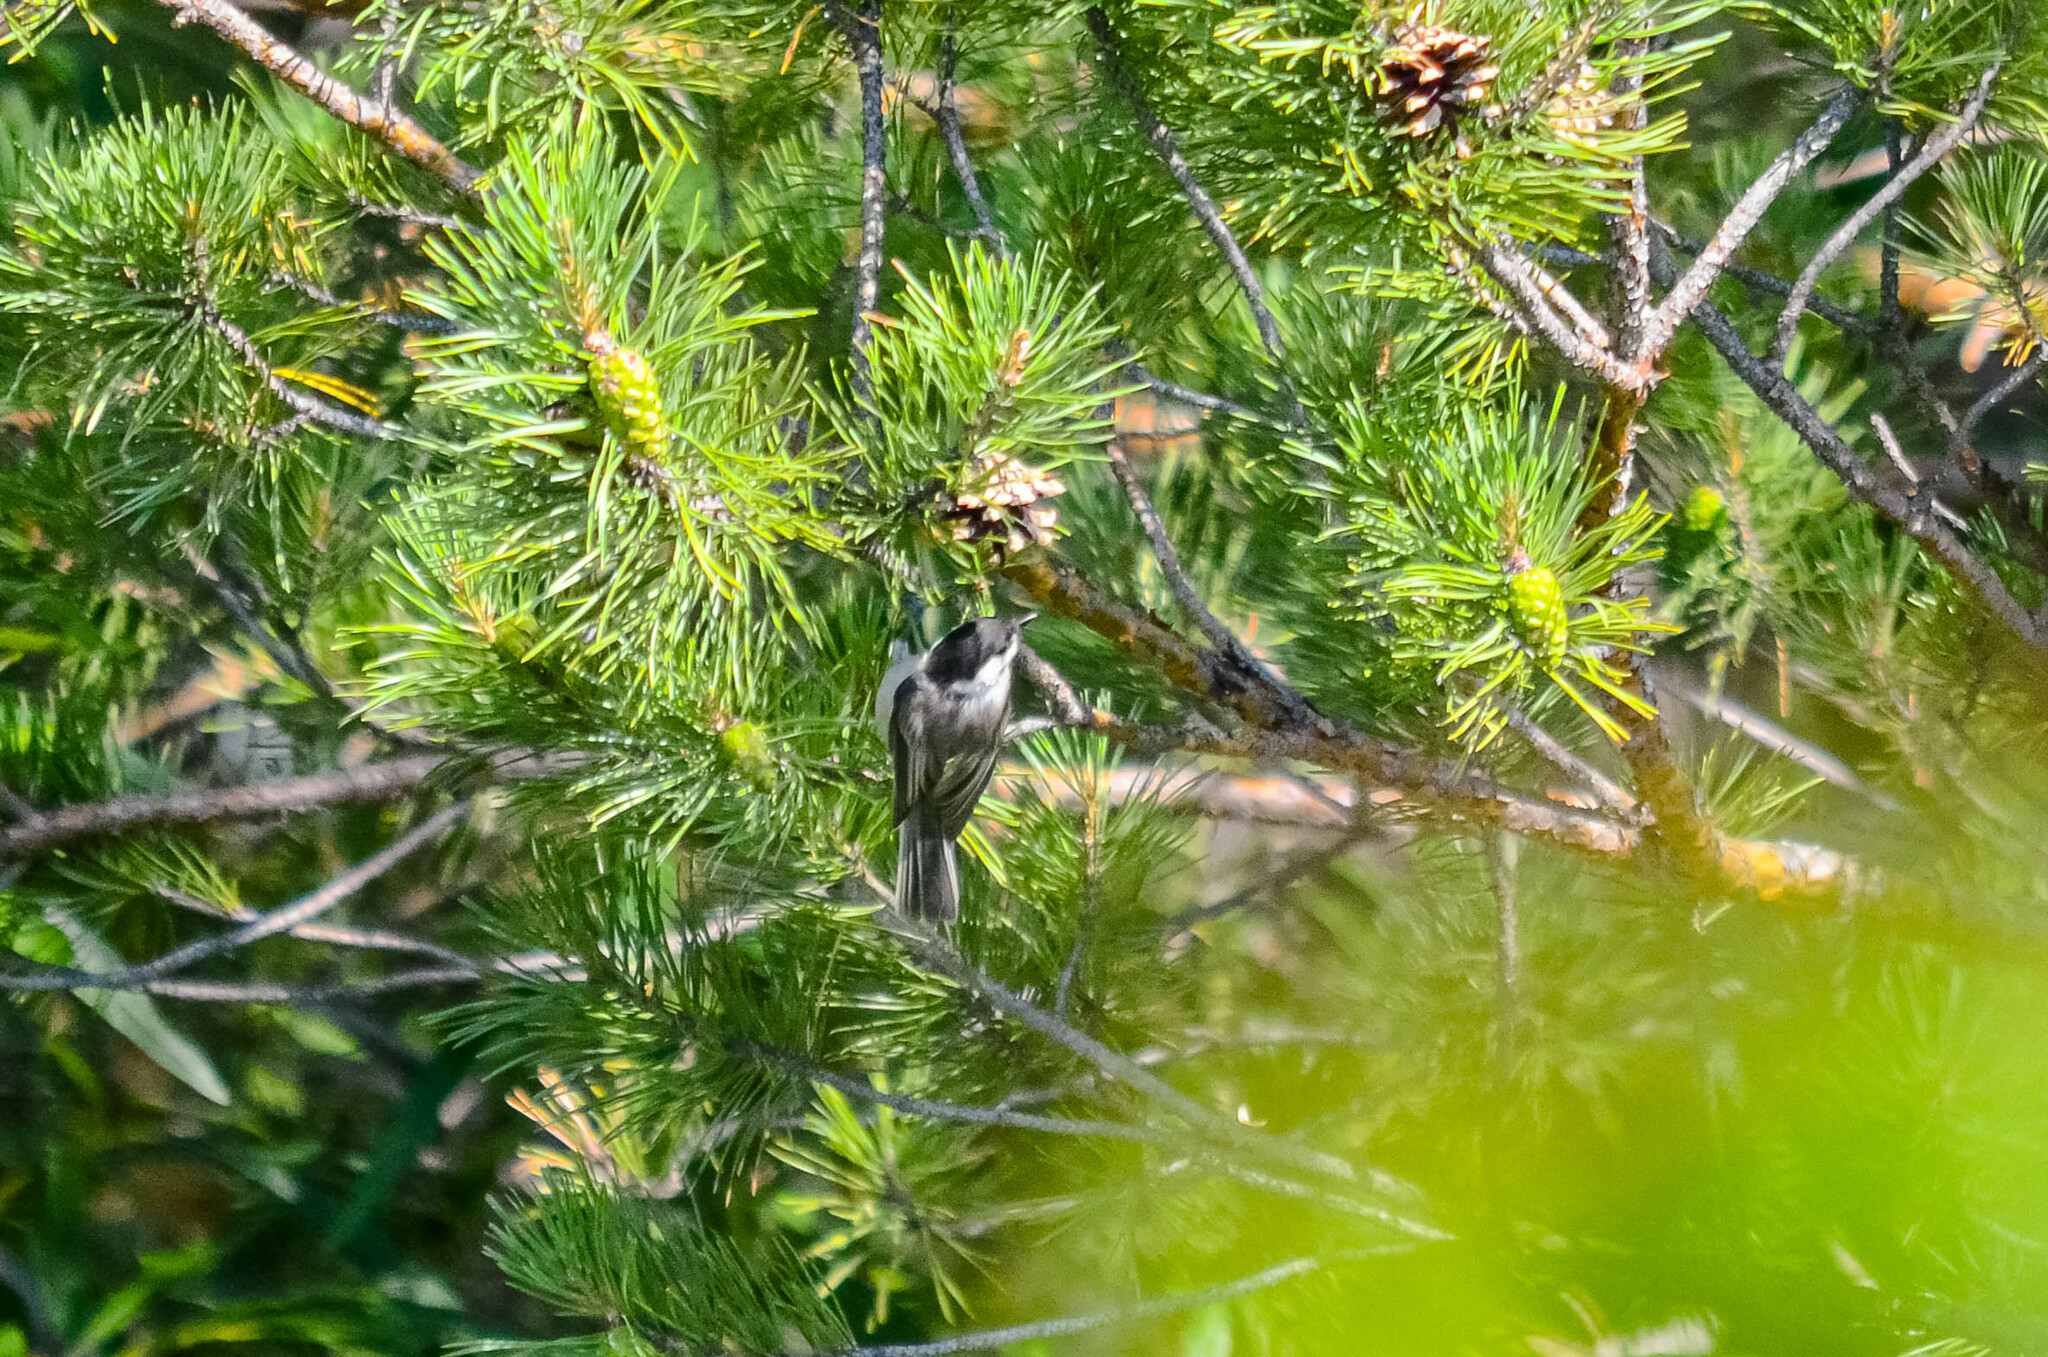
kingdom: Animalia
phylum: Chordata
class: Aves
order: Passeriformes
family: Paridae
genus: Poecile
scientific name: Poecile montanus
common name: Willow tit
